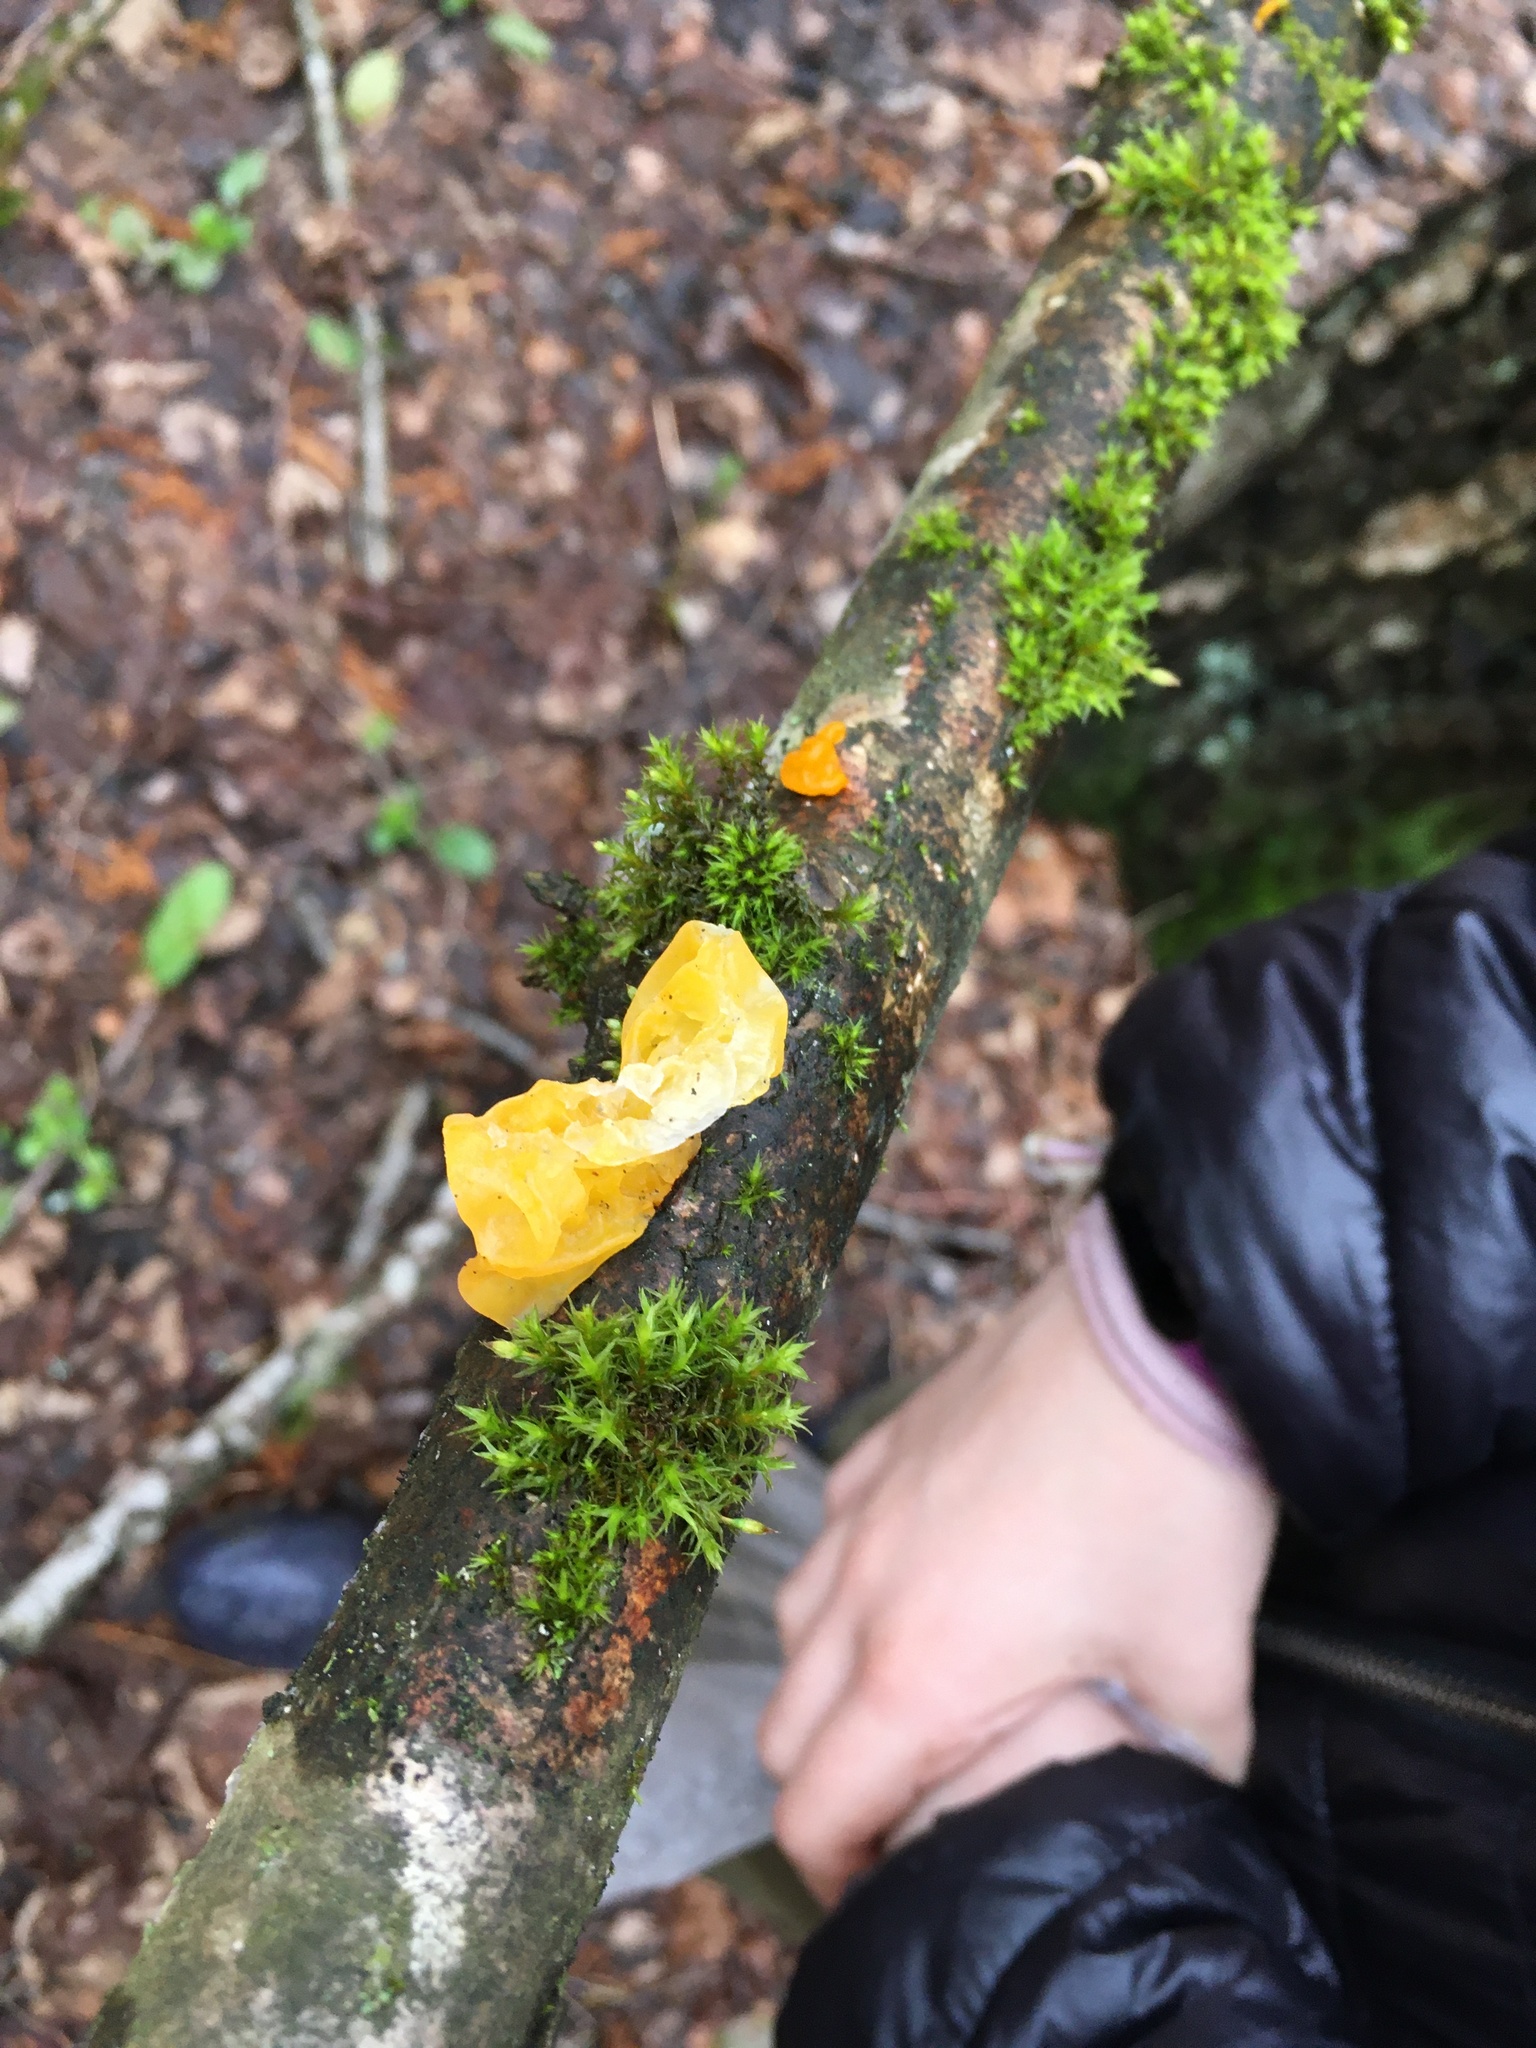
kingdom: Fungi
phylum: Basidiomycota
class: Tremellomycetes
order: Tremellales
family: Tremellaceae
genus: Tremella
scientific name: Tremella mesenterica
